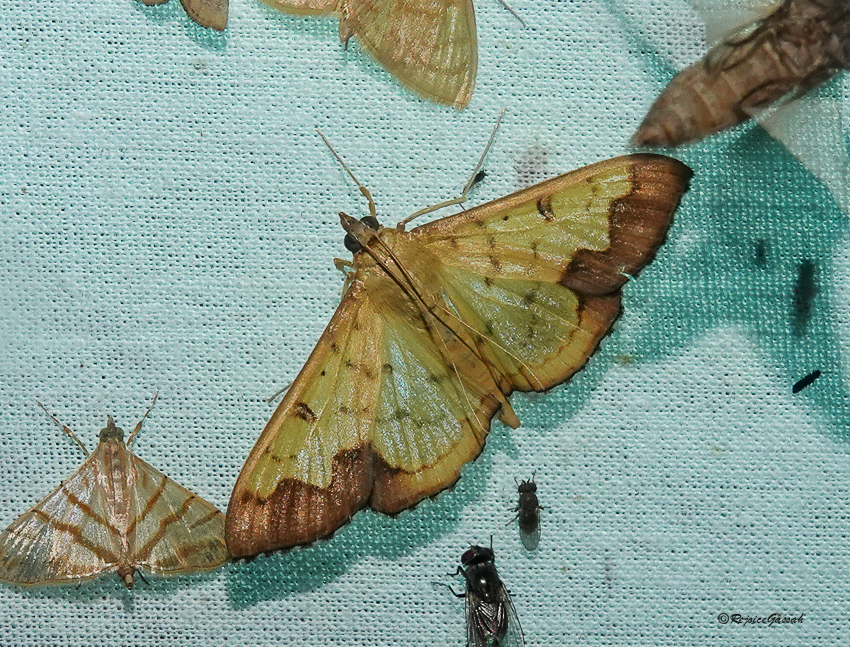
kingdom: Animalia
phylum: Arthropoda
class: Insecta
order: Lepidoptera
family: Crambidae
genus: Meroctena
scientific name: Meroctena tullalis
